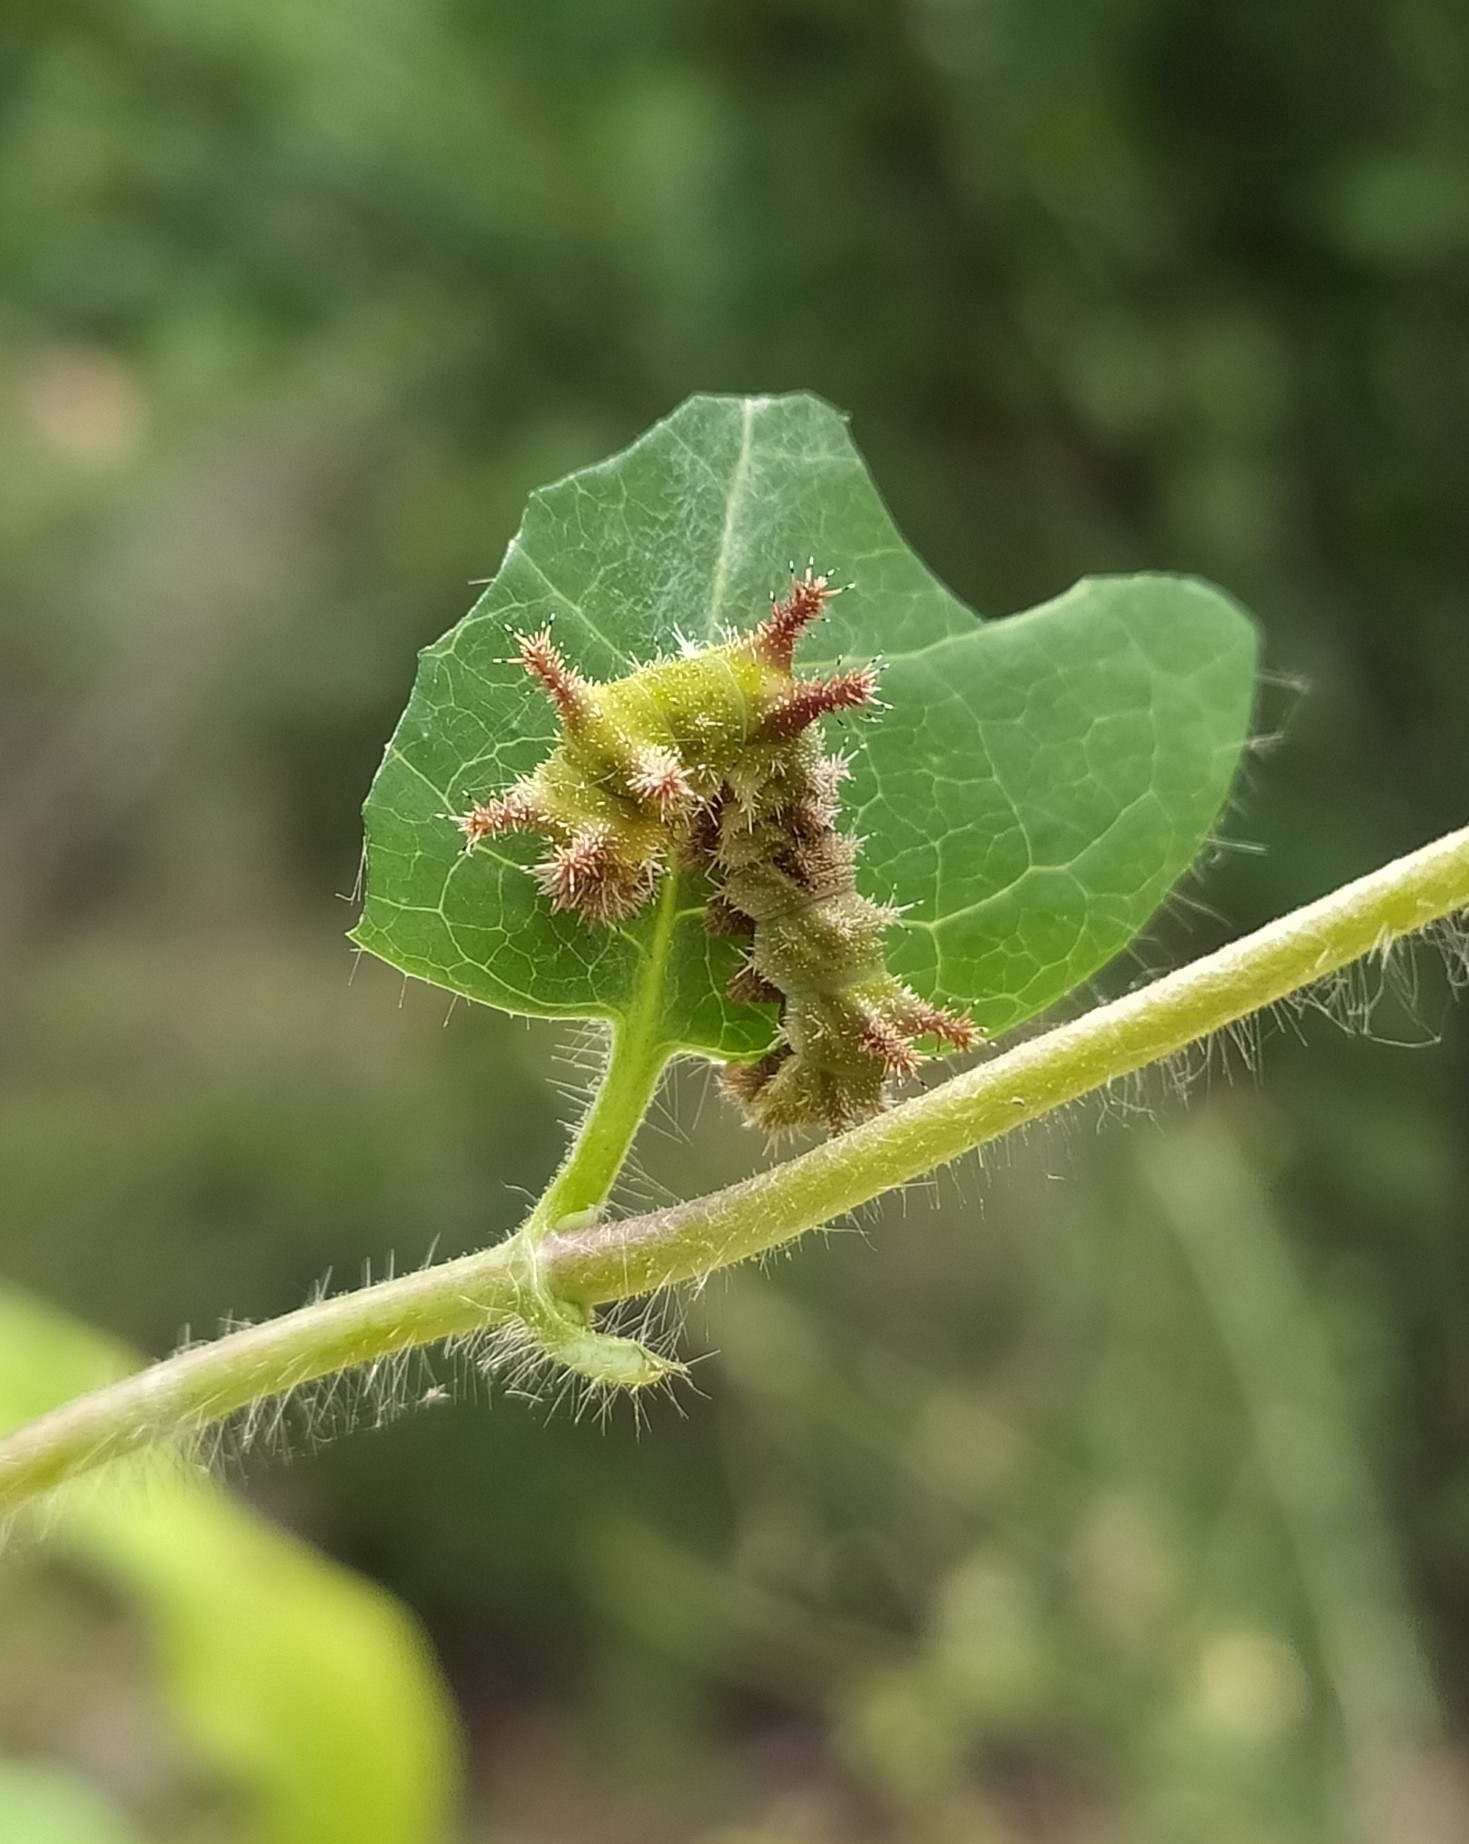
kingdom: Animalia
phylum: Arthropoda
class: Insecta
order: Lepidoptera
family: Nymphalidae
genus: Limenitis
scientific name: Limenitis reducta
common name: Southern white admiral
